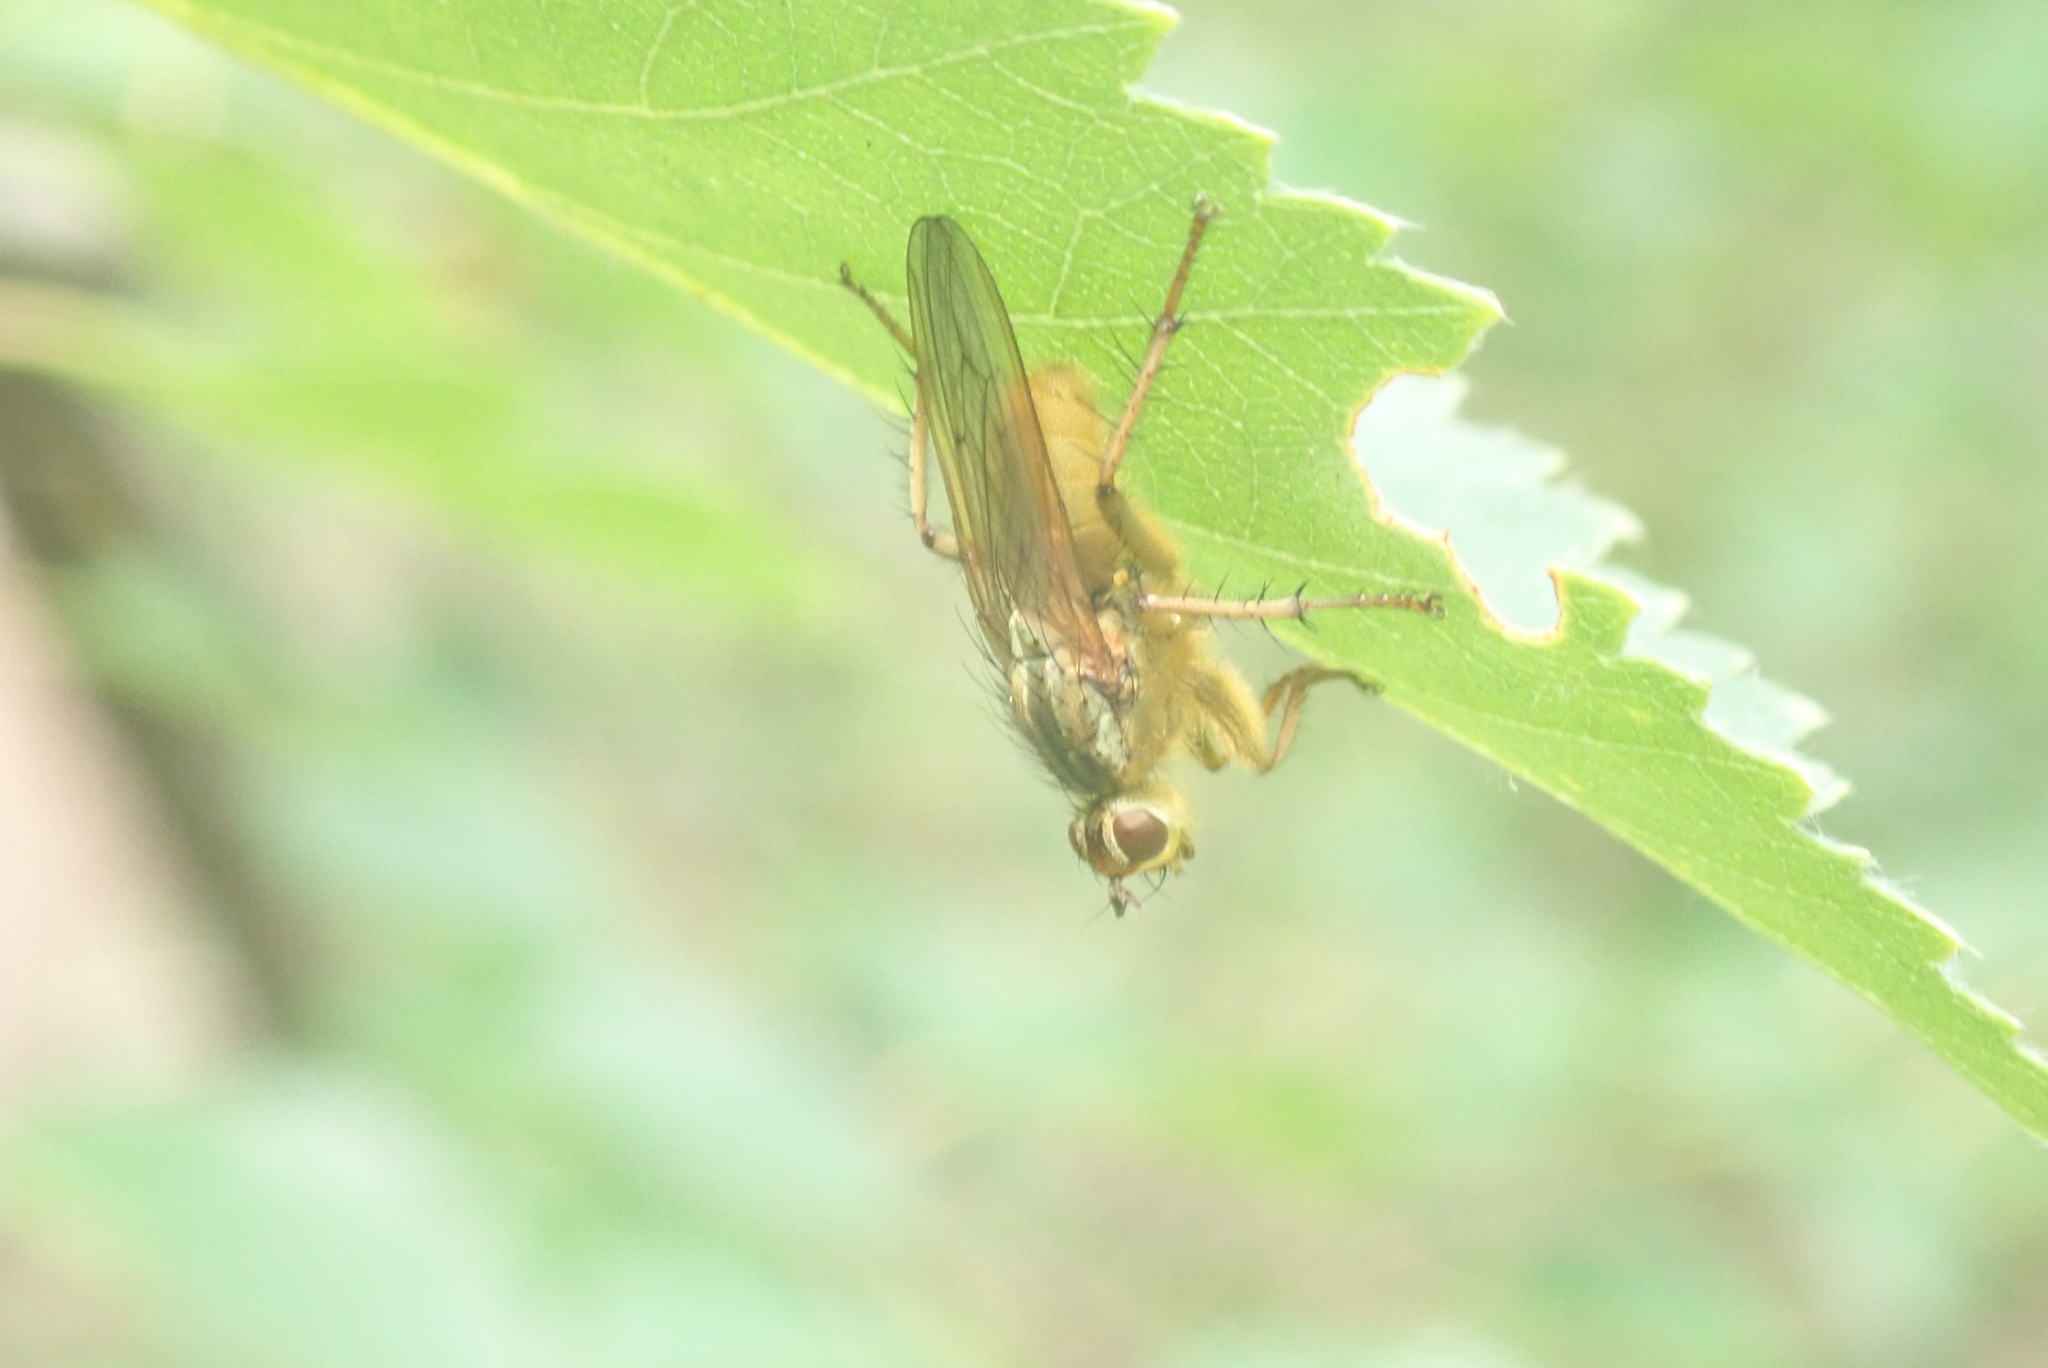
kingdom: Animalia
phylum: Arthropoda
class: Insecta
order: Diptera
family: Scathophagidae
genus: Scathophaga
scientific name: Scathophaga stercoraria
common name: Yellow dung fly
